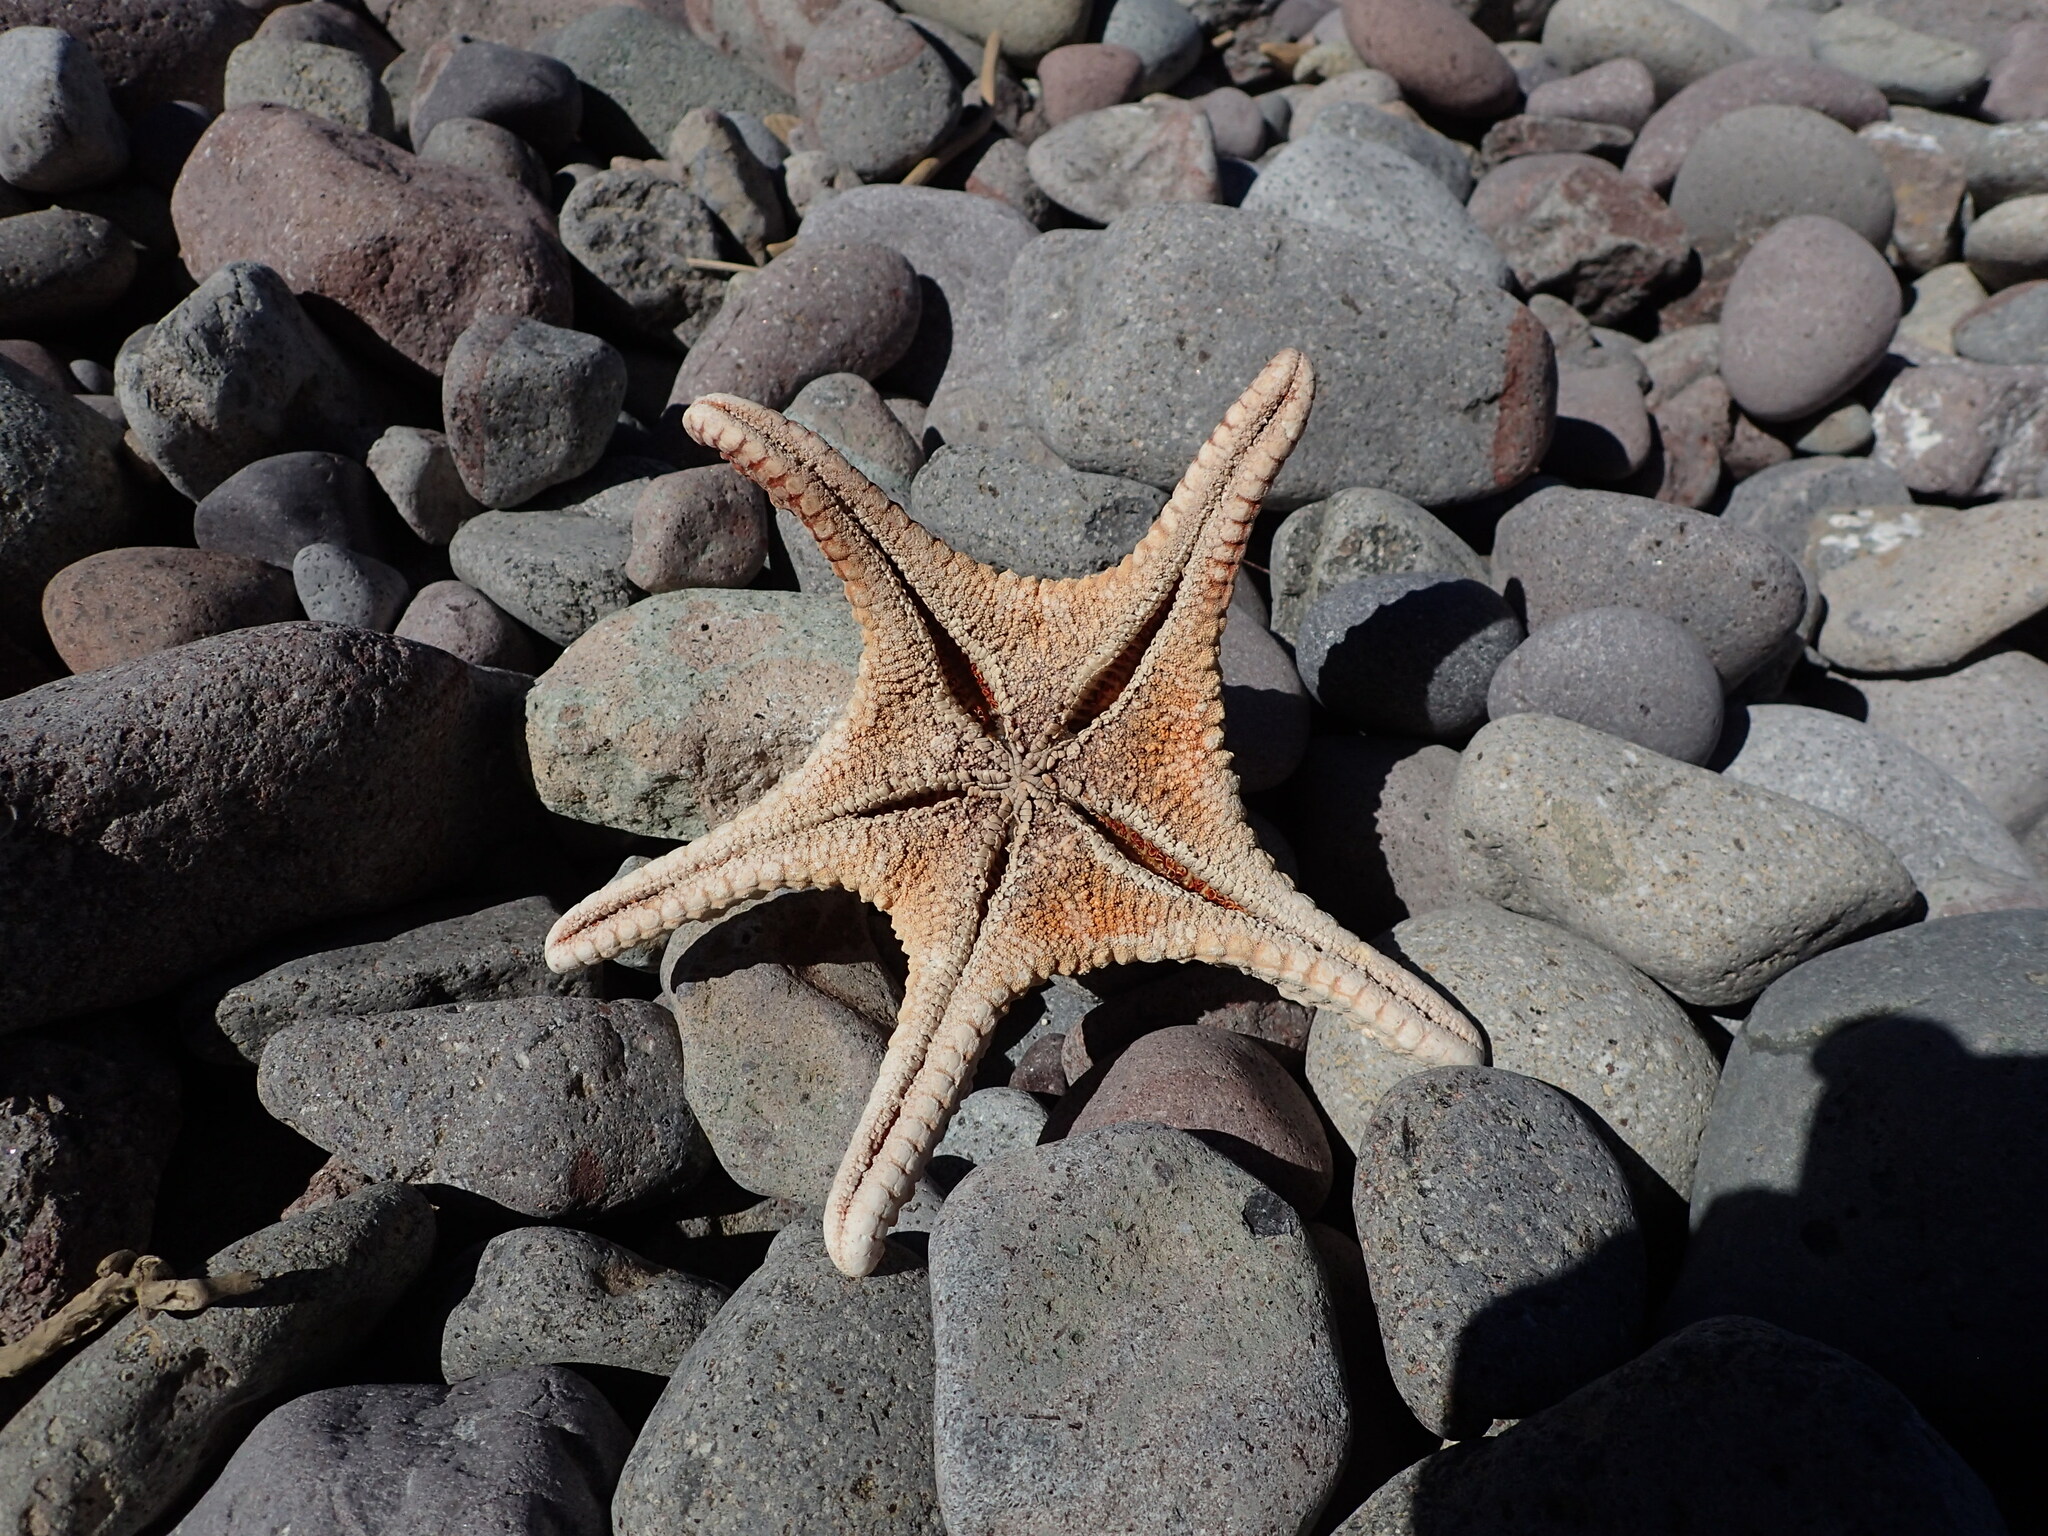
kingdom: Animalia
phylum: Echinodermata
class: Asteroidea
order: Valvatida
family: Oreasteridae
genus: Pentaceraster
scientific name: Pentaceraster cumingi
